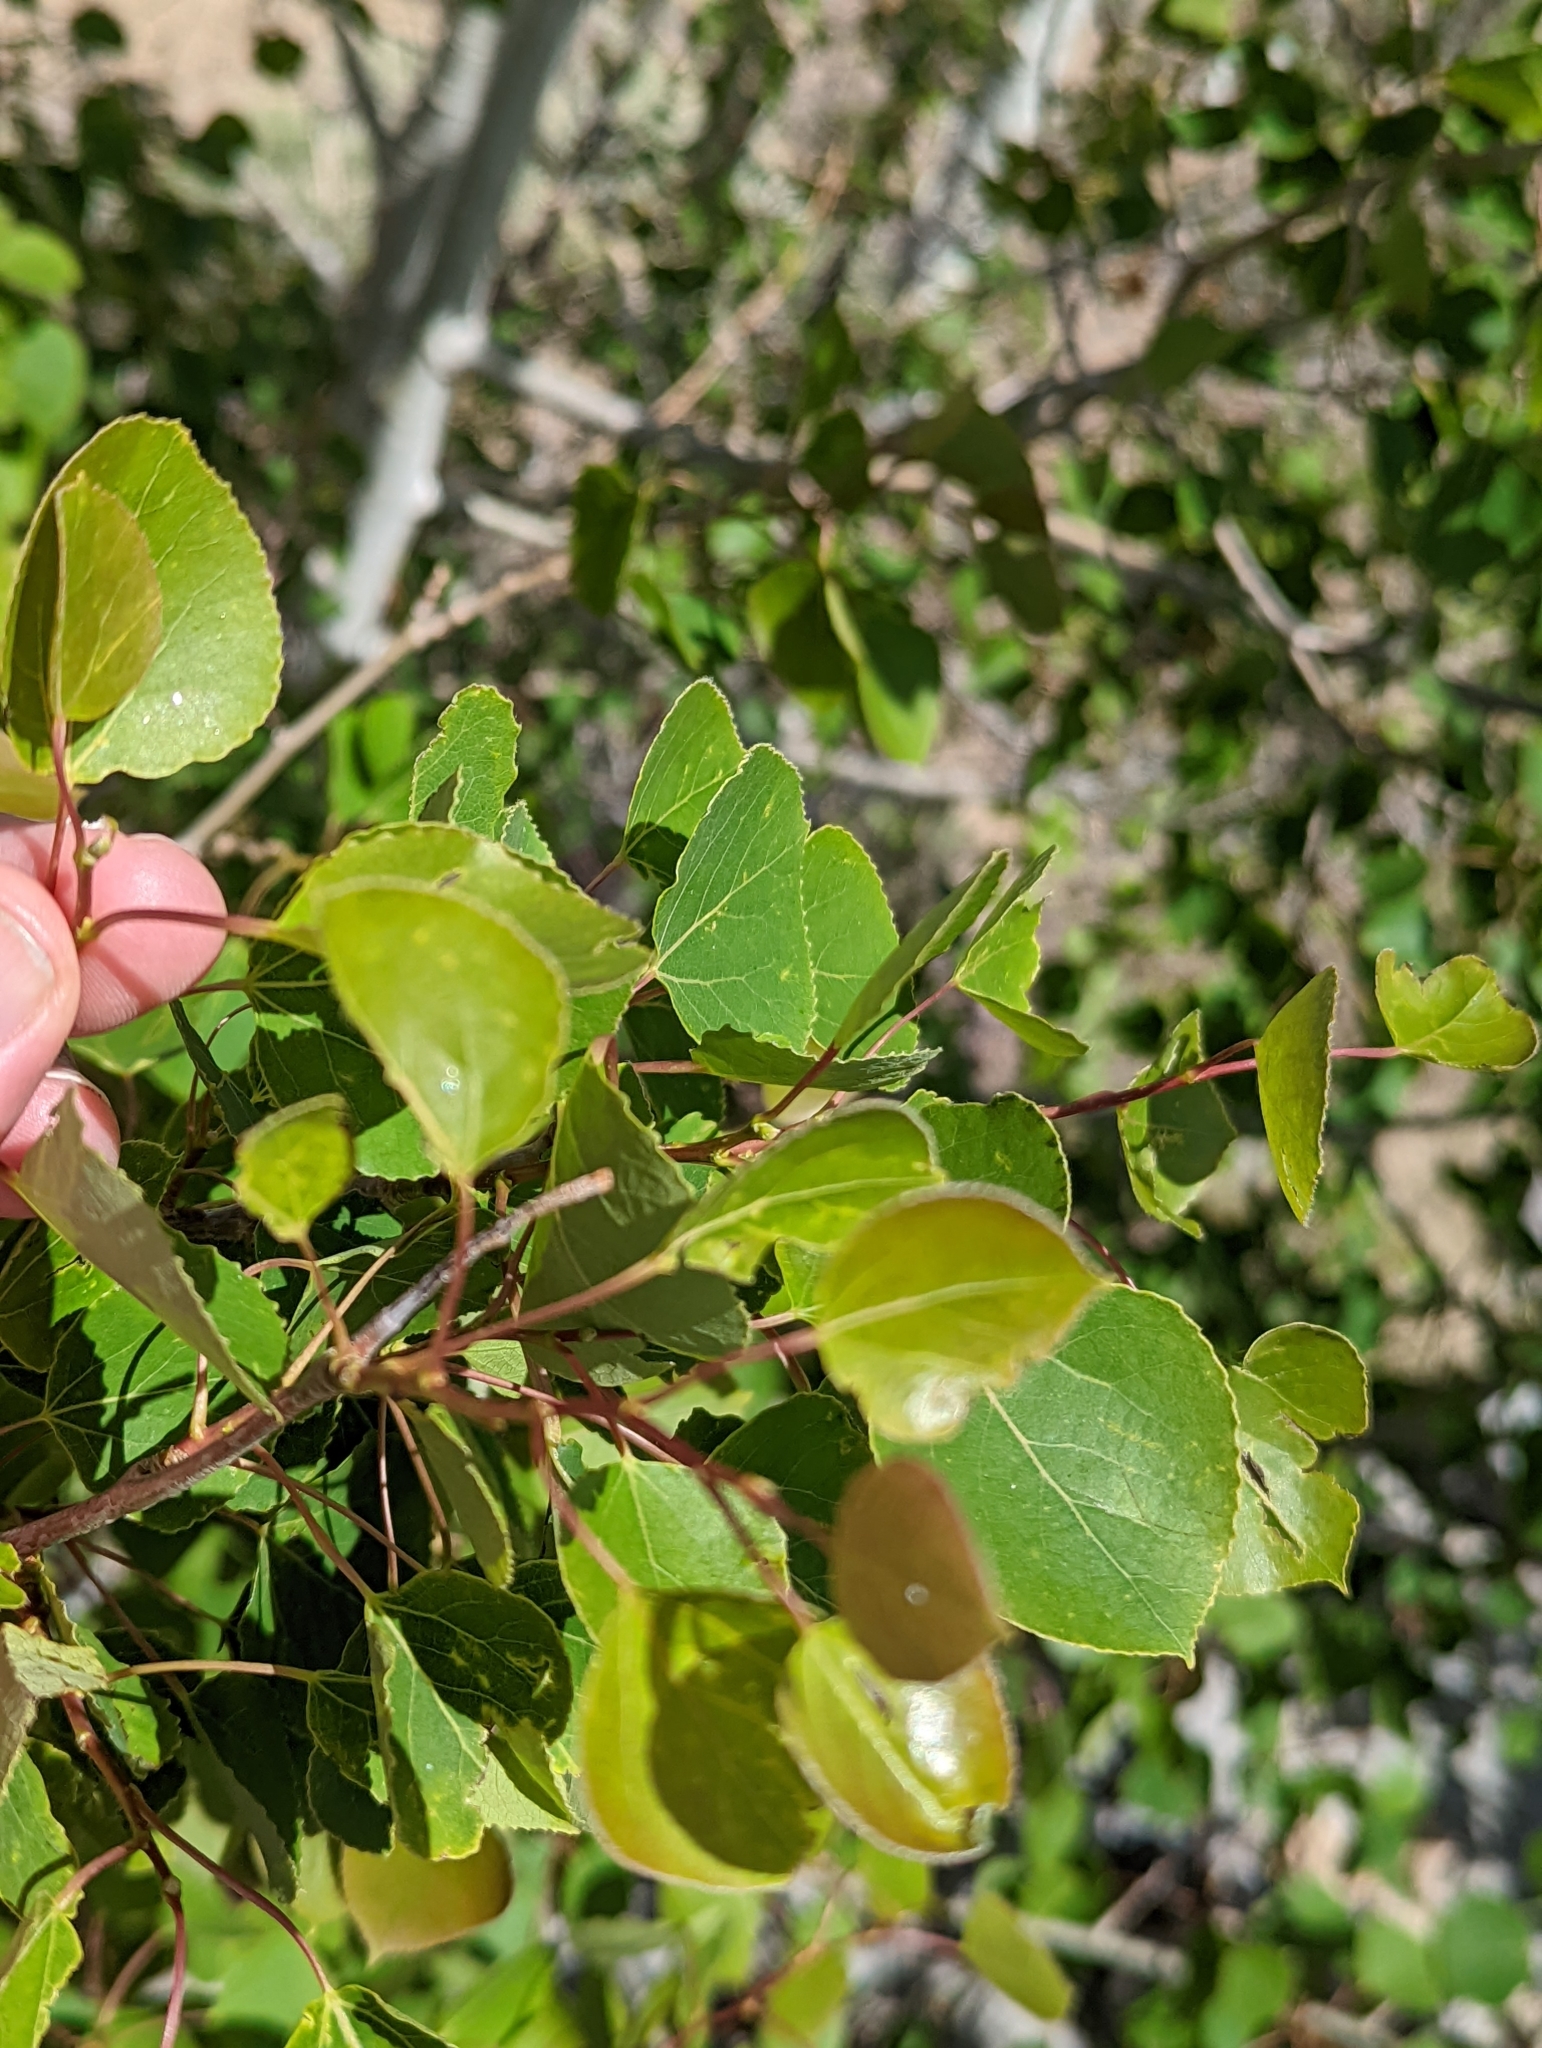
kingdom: Plantae
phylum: Tracheophyta
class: Magnoliopsida
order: Malpighiales
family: Salicaceae
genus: Populus
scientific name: Populus tremuloides
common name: Quaking aspen
